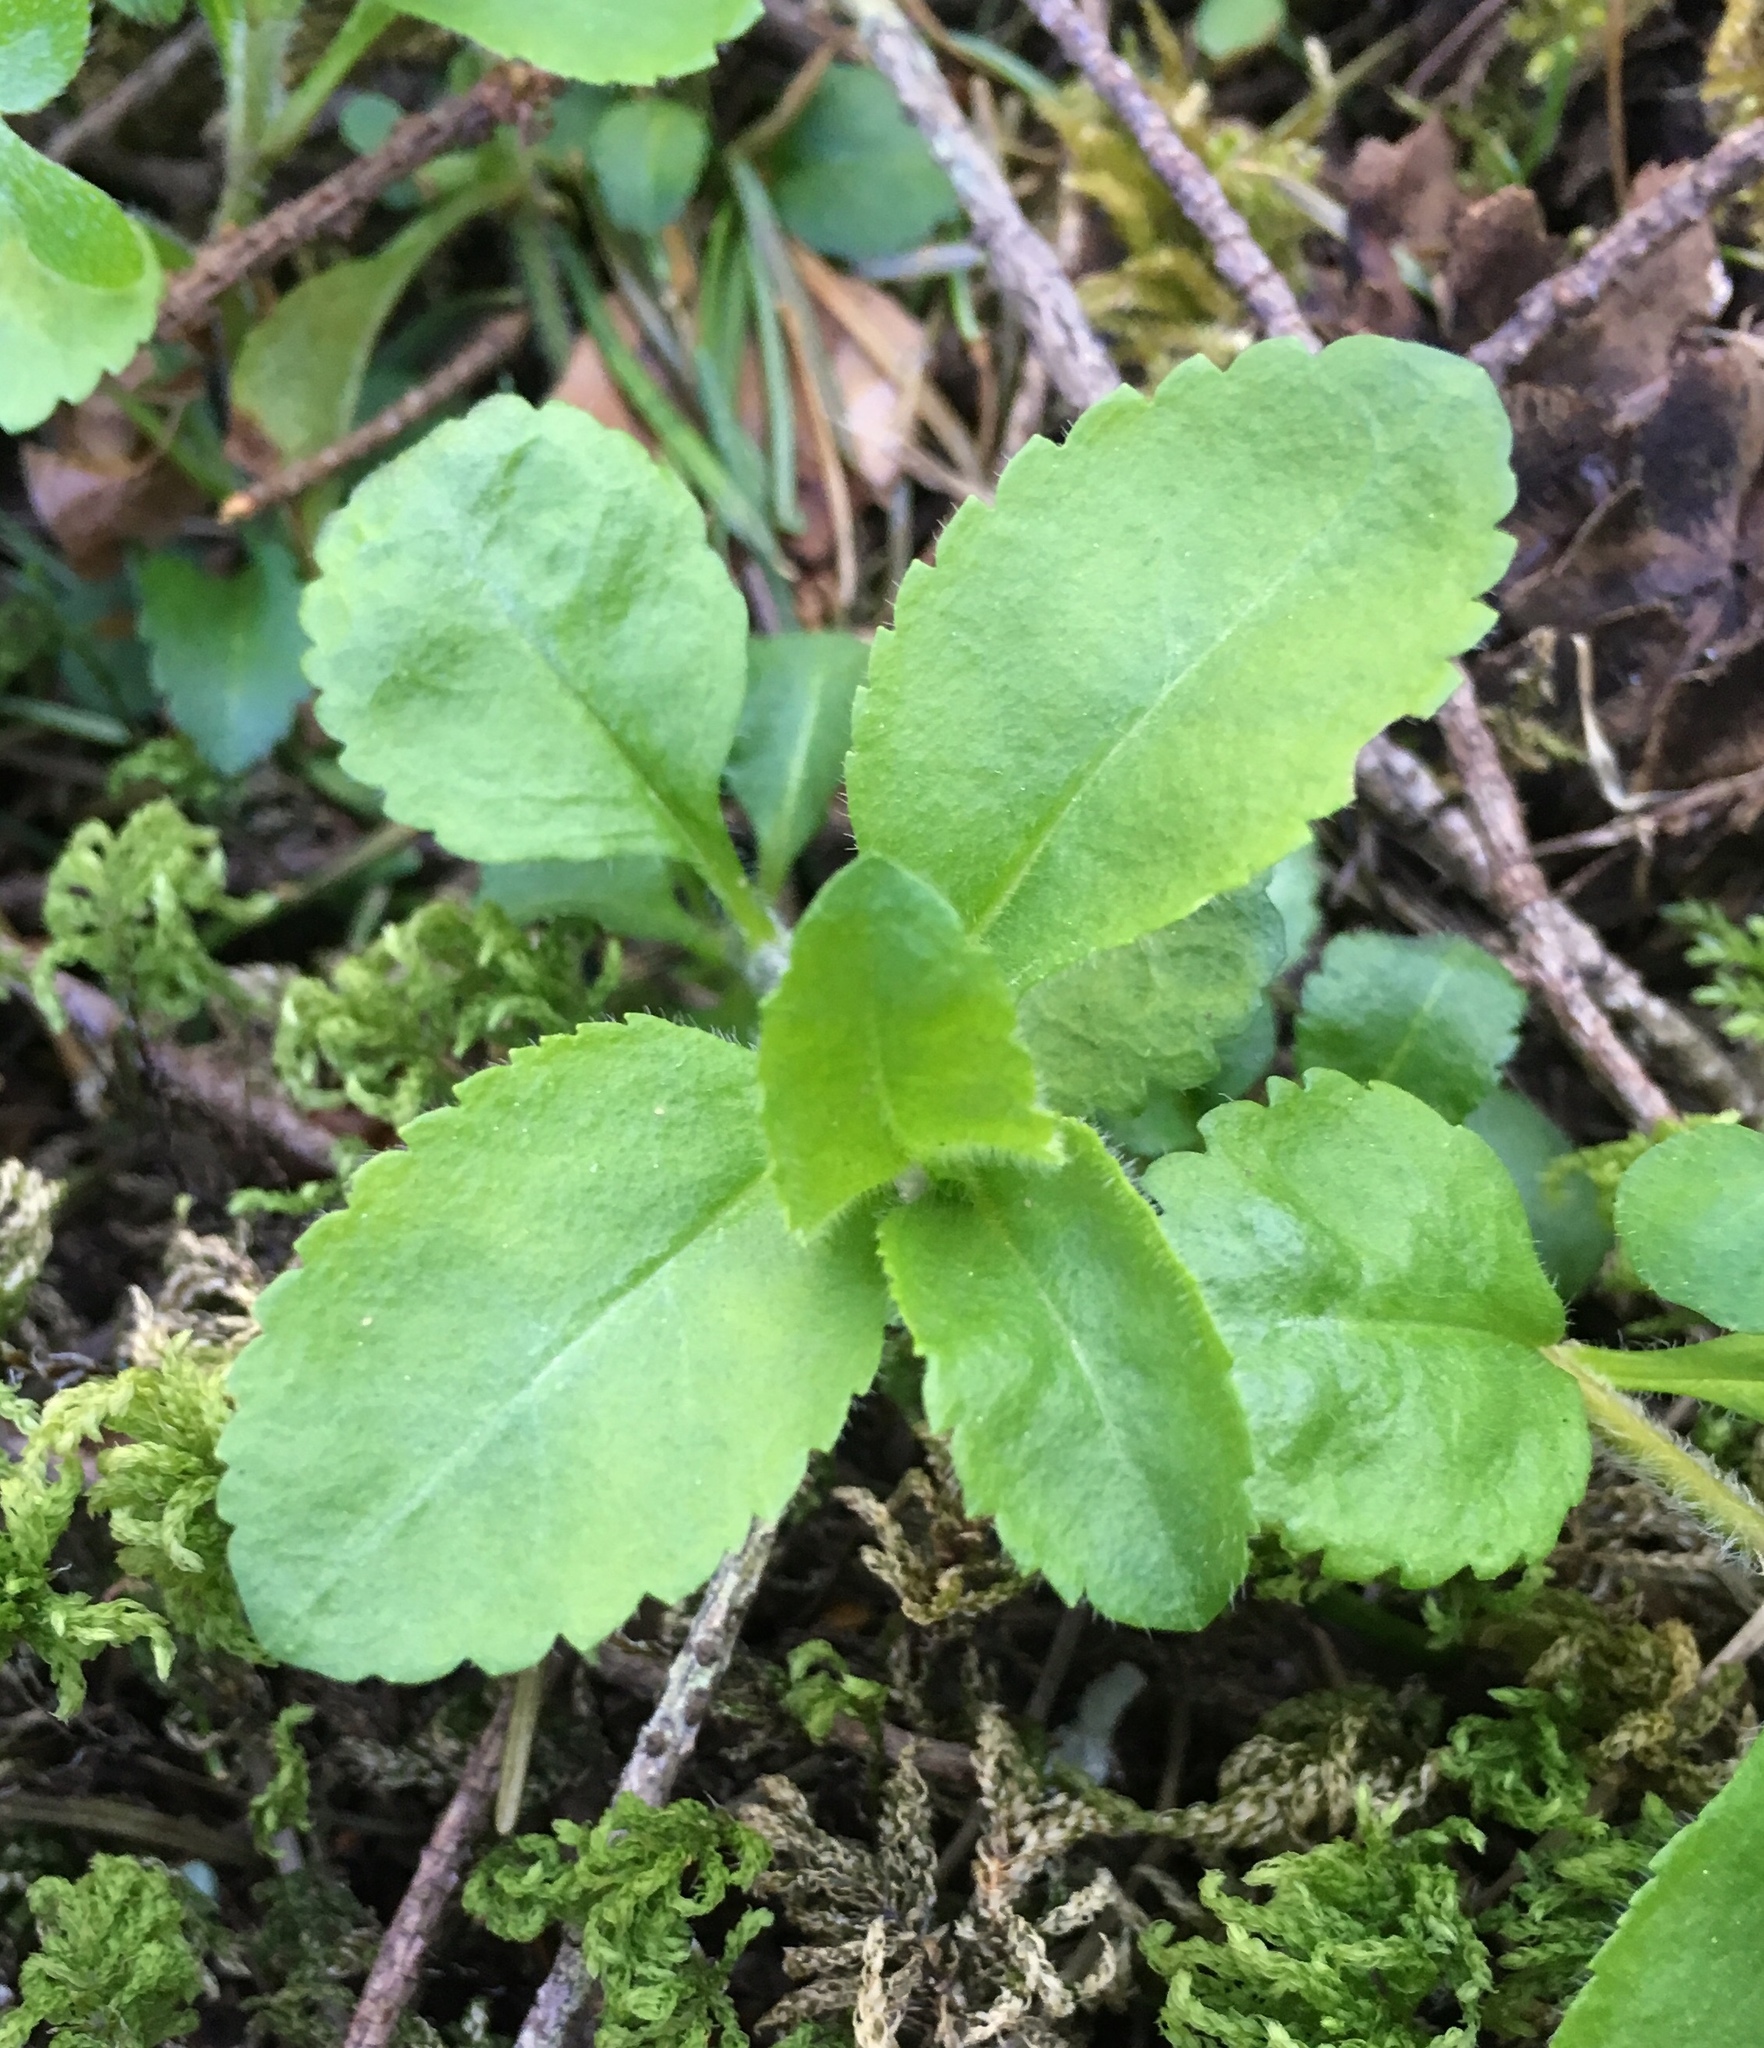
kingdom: Plantae
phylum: Tracheophyta
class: Magnoliopsida
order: Lamiales
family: Plantaginaceae
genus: Veronica
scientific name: Veronica officinalis
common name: Common speedwell
